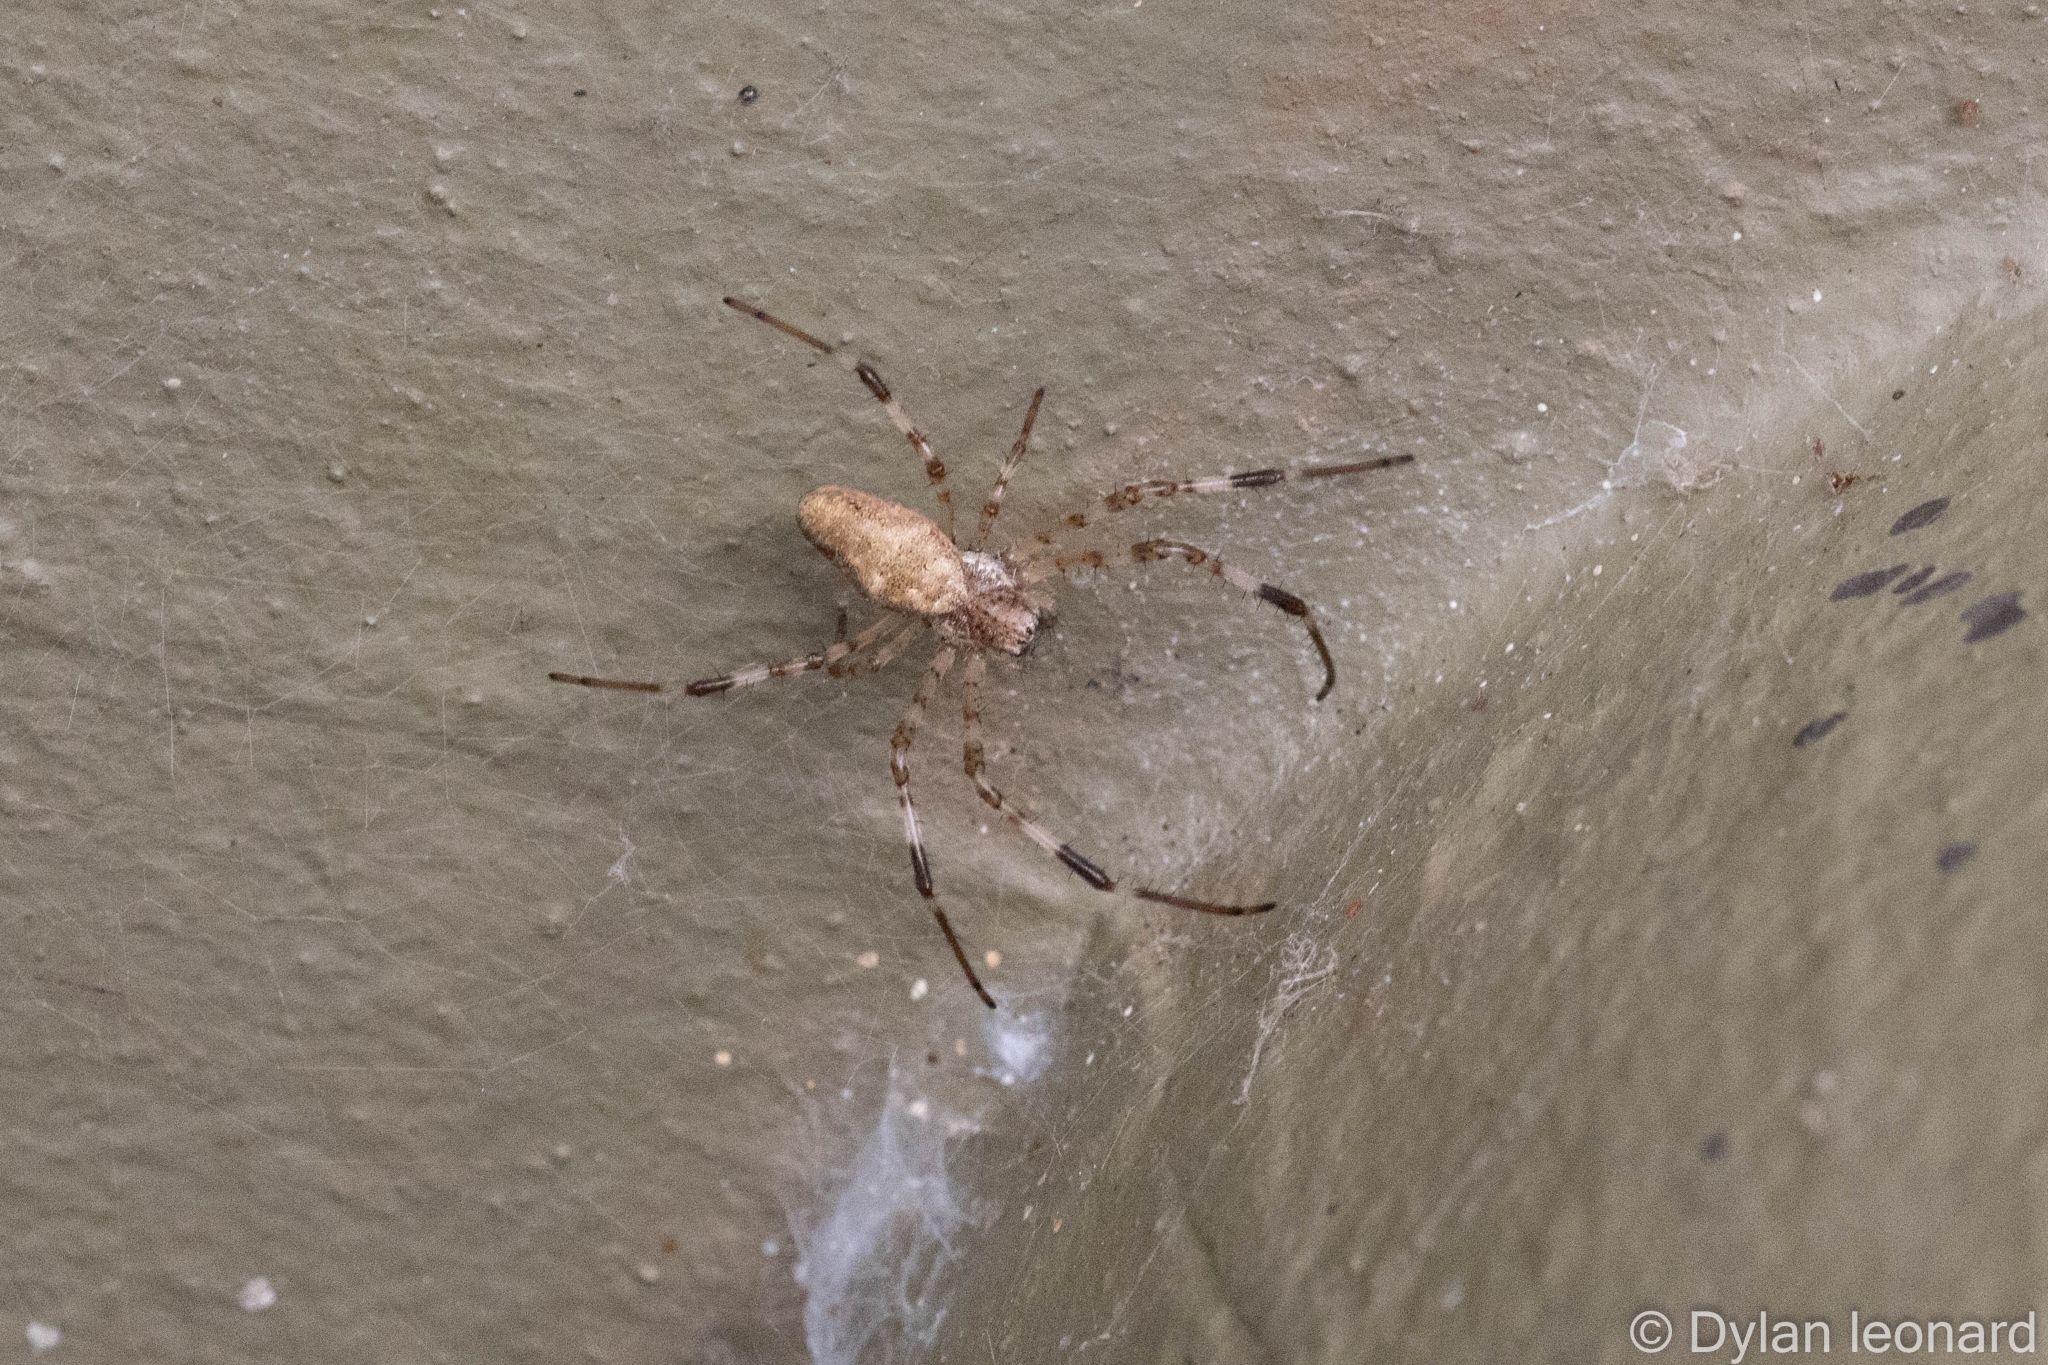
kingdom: Animalia
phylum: Arthropoda
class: Arachnida
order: Araneae
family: Araneidae
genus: Nephilingis
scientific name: Nephilingis cruentata
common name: African hermit spider
